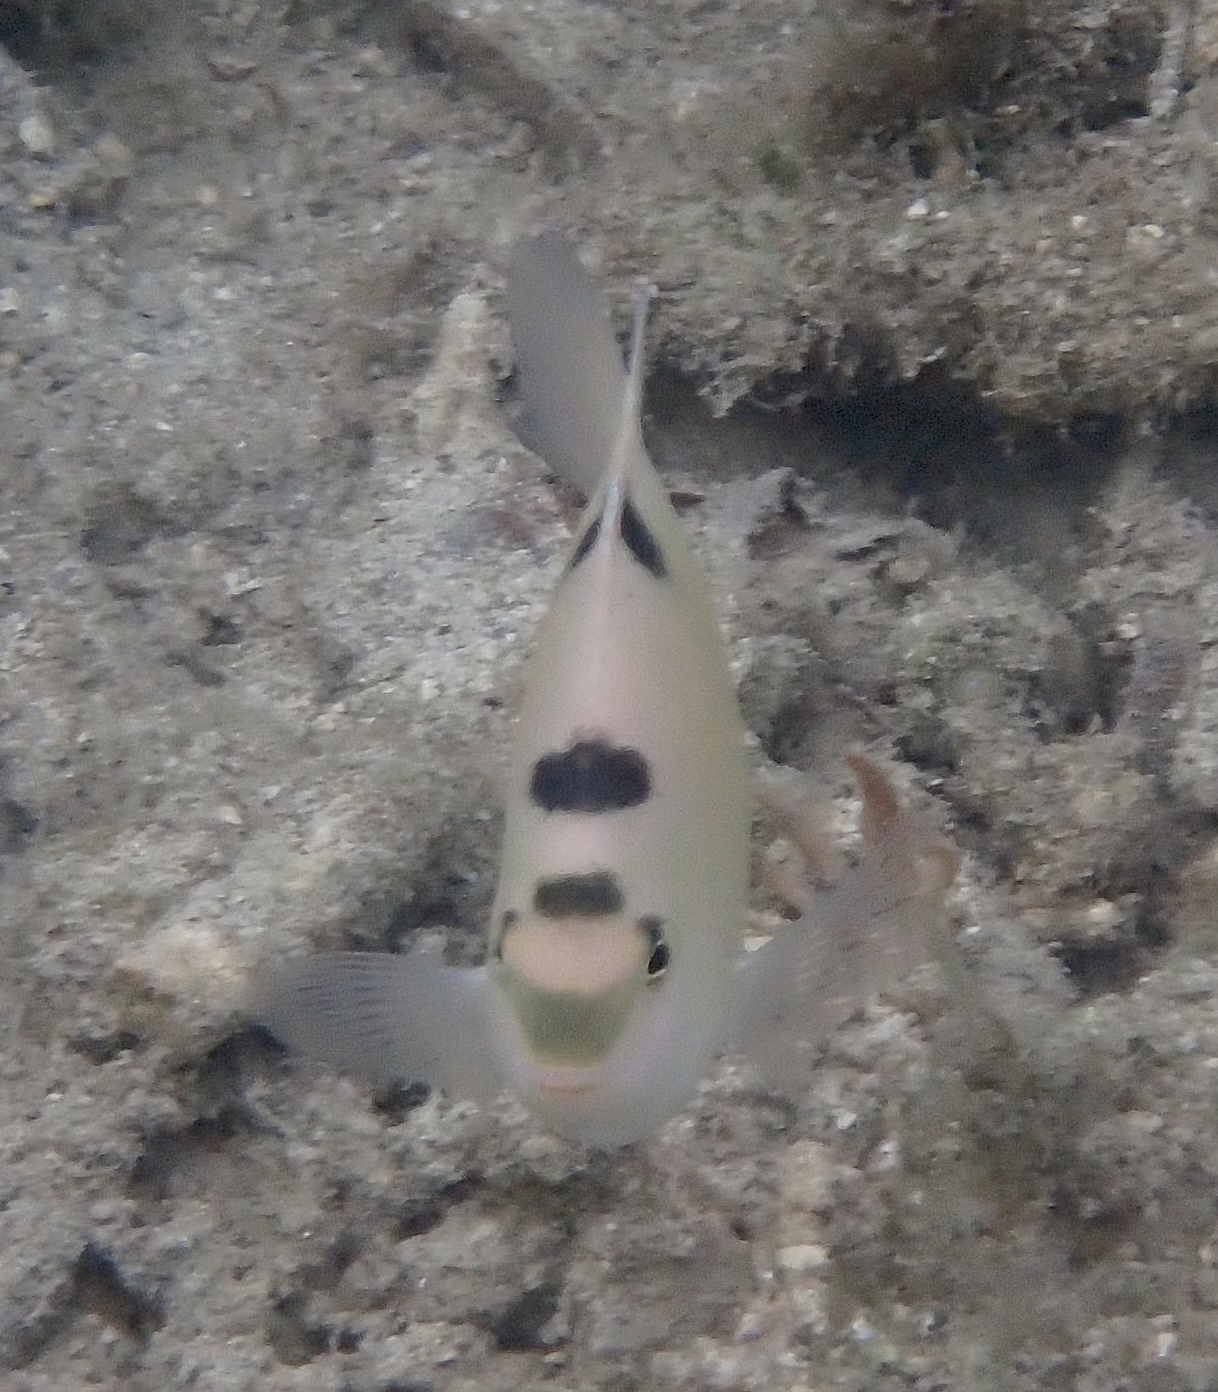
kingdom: Animalia
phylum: Chordata
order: Perciformes
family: Pomacentridae
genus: Dischistodus
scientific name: Dischistodus perspicillatus
